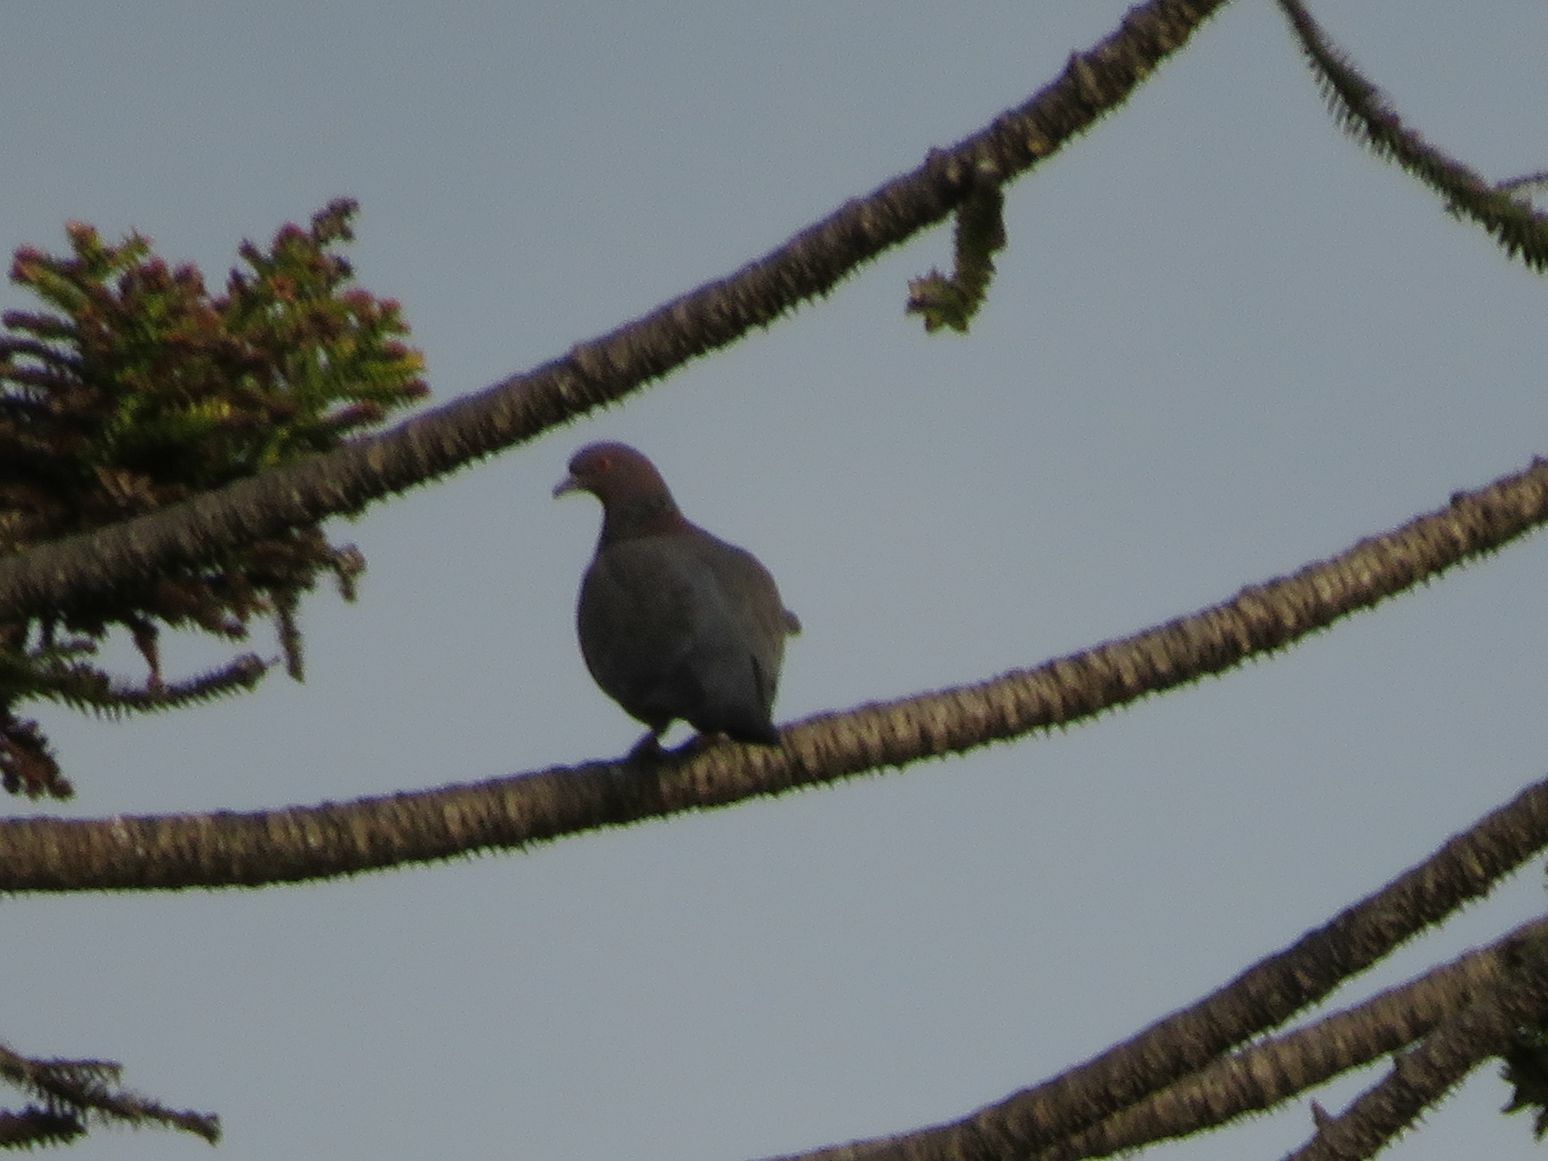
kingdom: Animalia
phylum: Chordata
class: Aves
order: Columbiformes
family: Columbidae
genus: Patagioenas
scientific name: Patagioenas picazuro
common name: Picazuro pigeon
